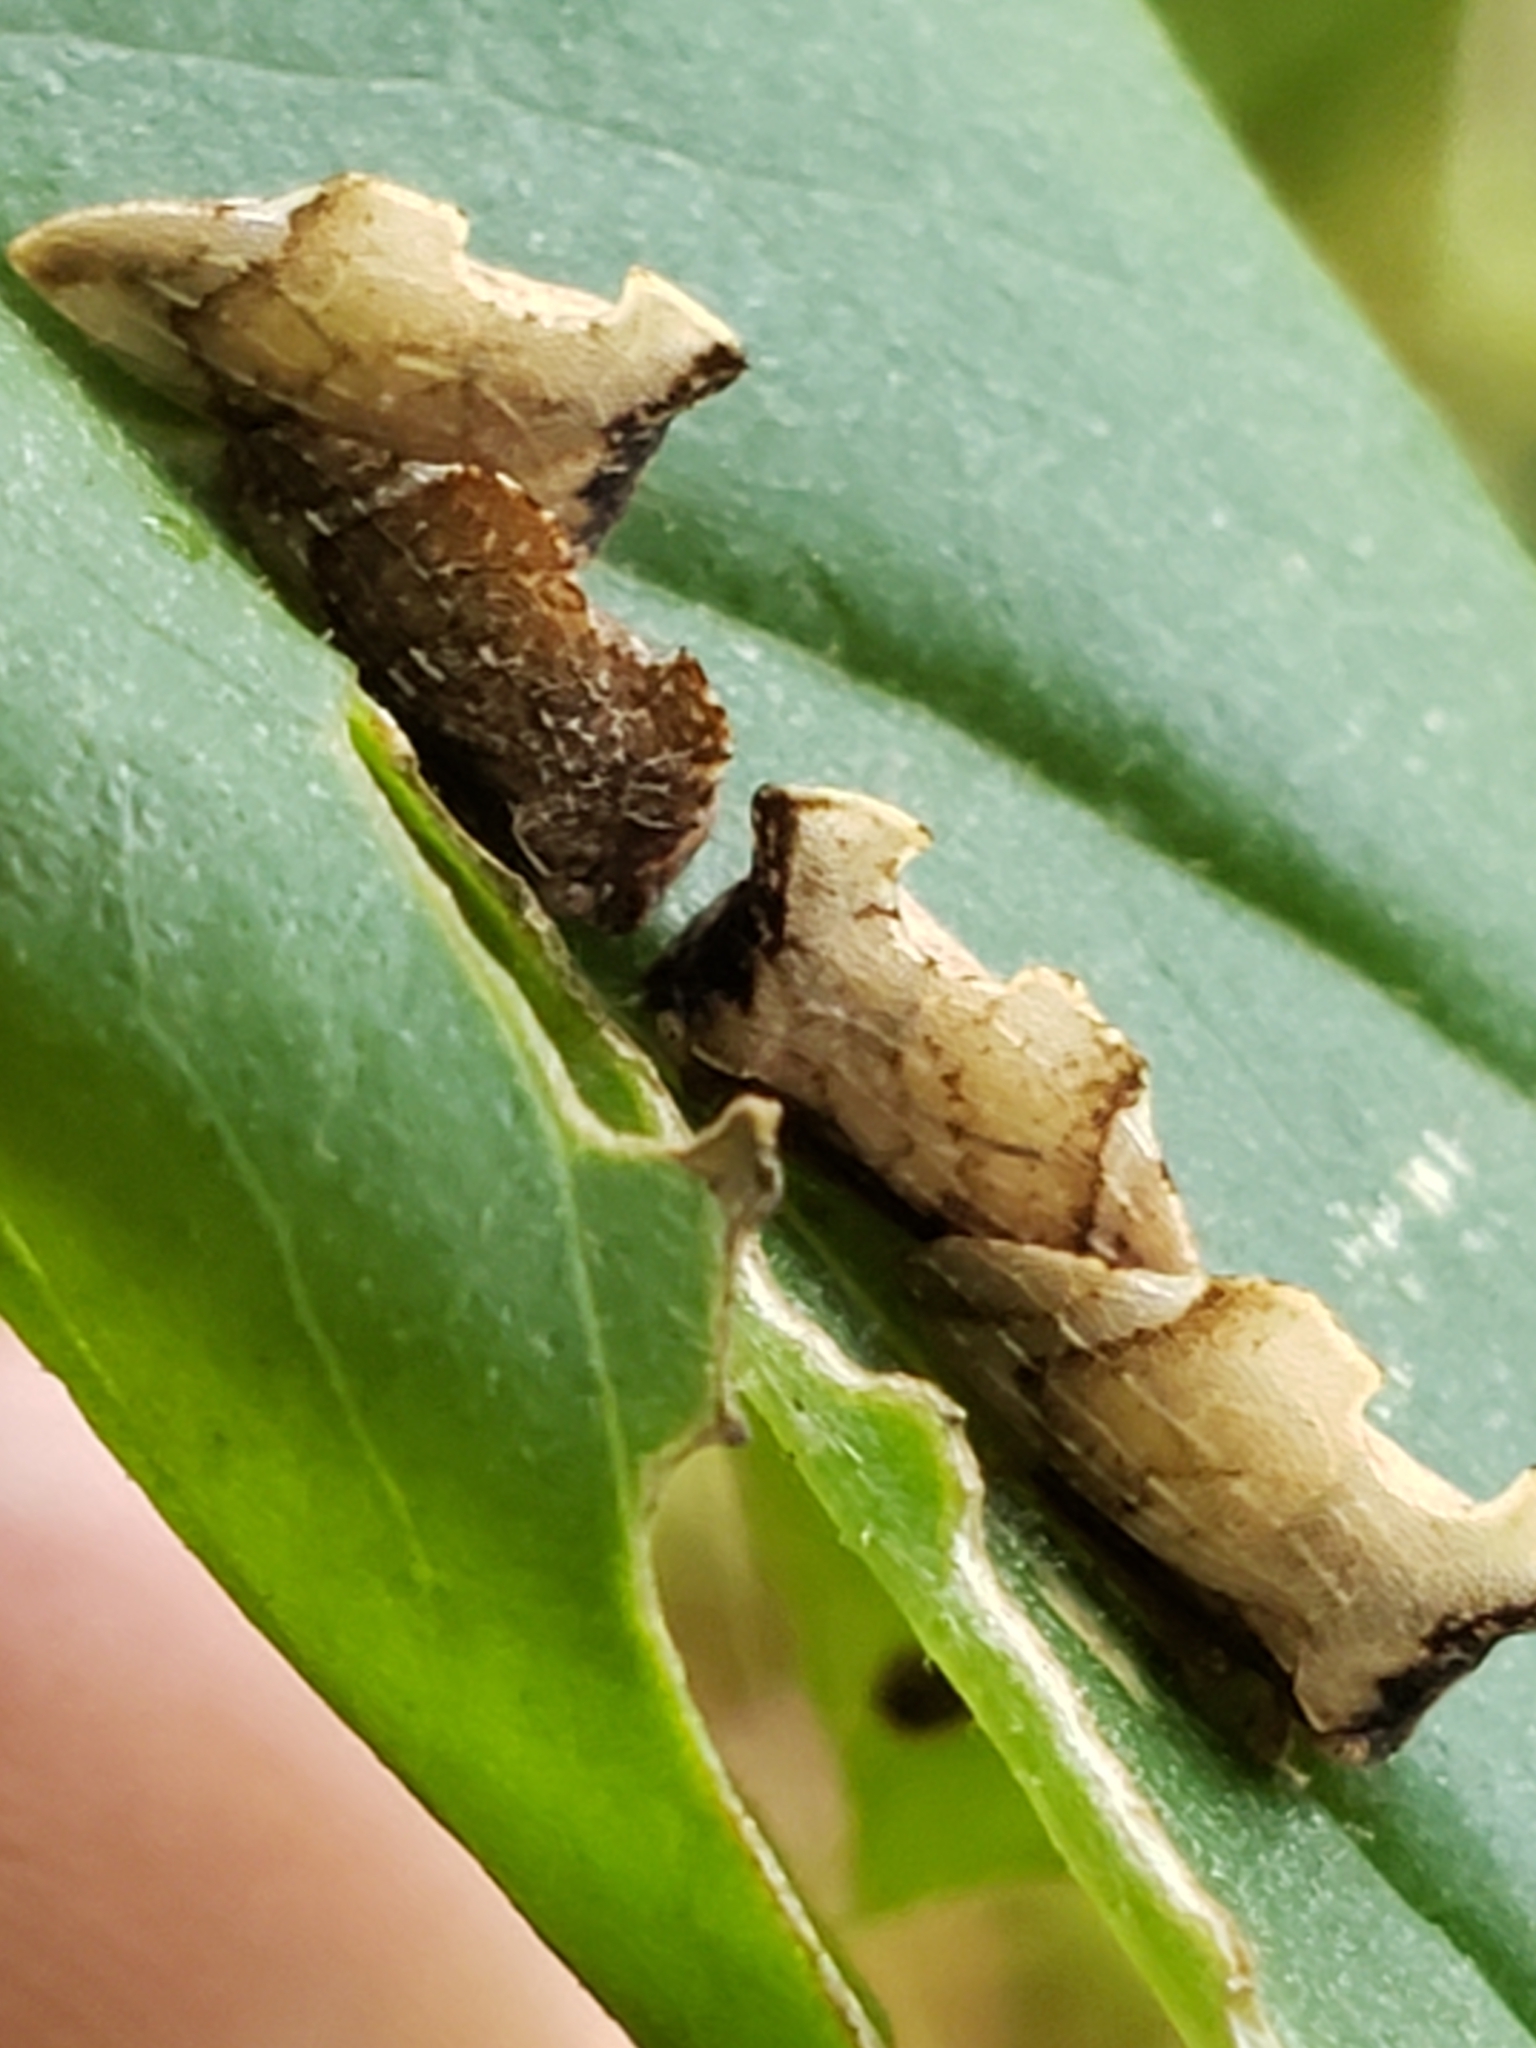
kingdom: Animalia
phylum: Arthropoda
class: Insecta
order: Hemiptera
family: Membracidae
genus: Entylia
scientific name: Entylia carinata
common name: Keeled treehopper
